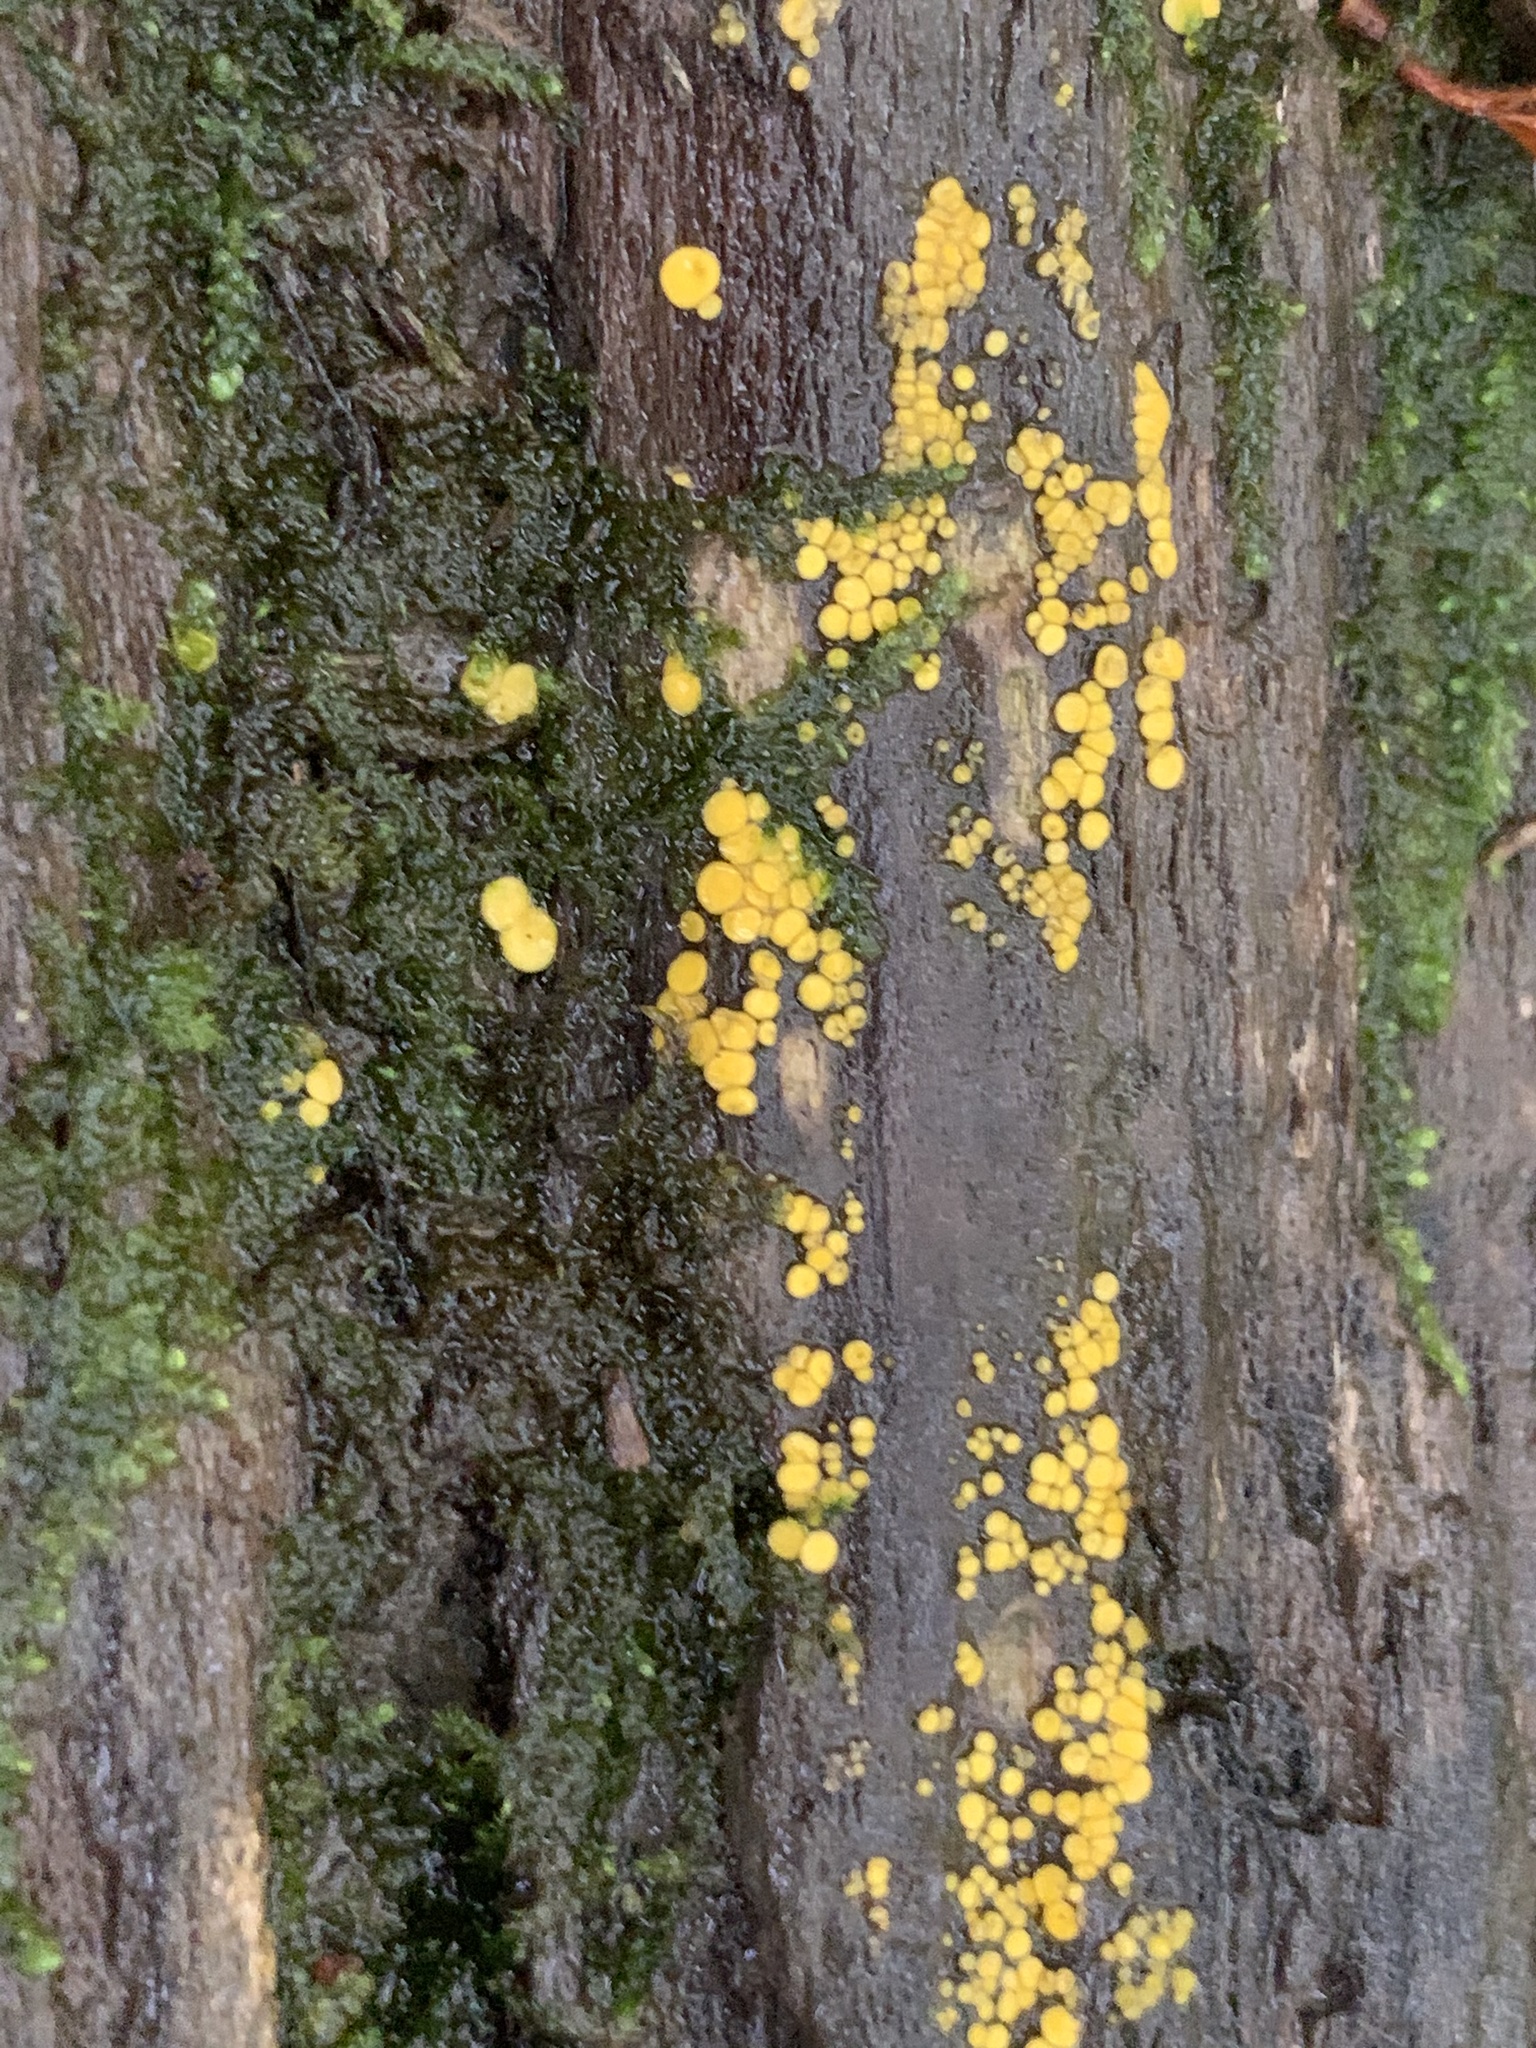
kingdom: Fungi
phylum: Ascomycota
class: Leotiomycetes
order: Helotiales
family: Pezizellaceae
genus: Calycina
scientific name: Calycina citrina
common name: Yellow fairy cups
